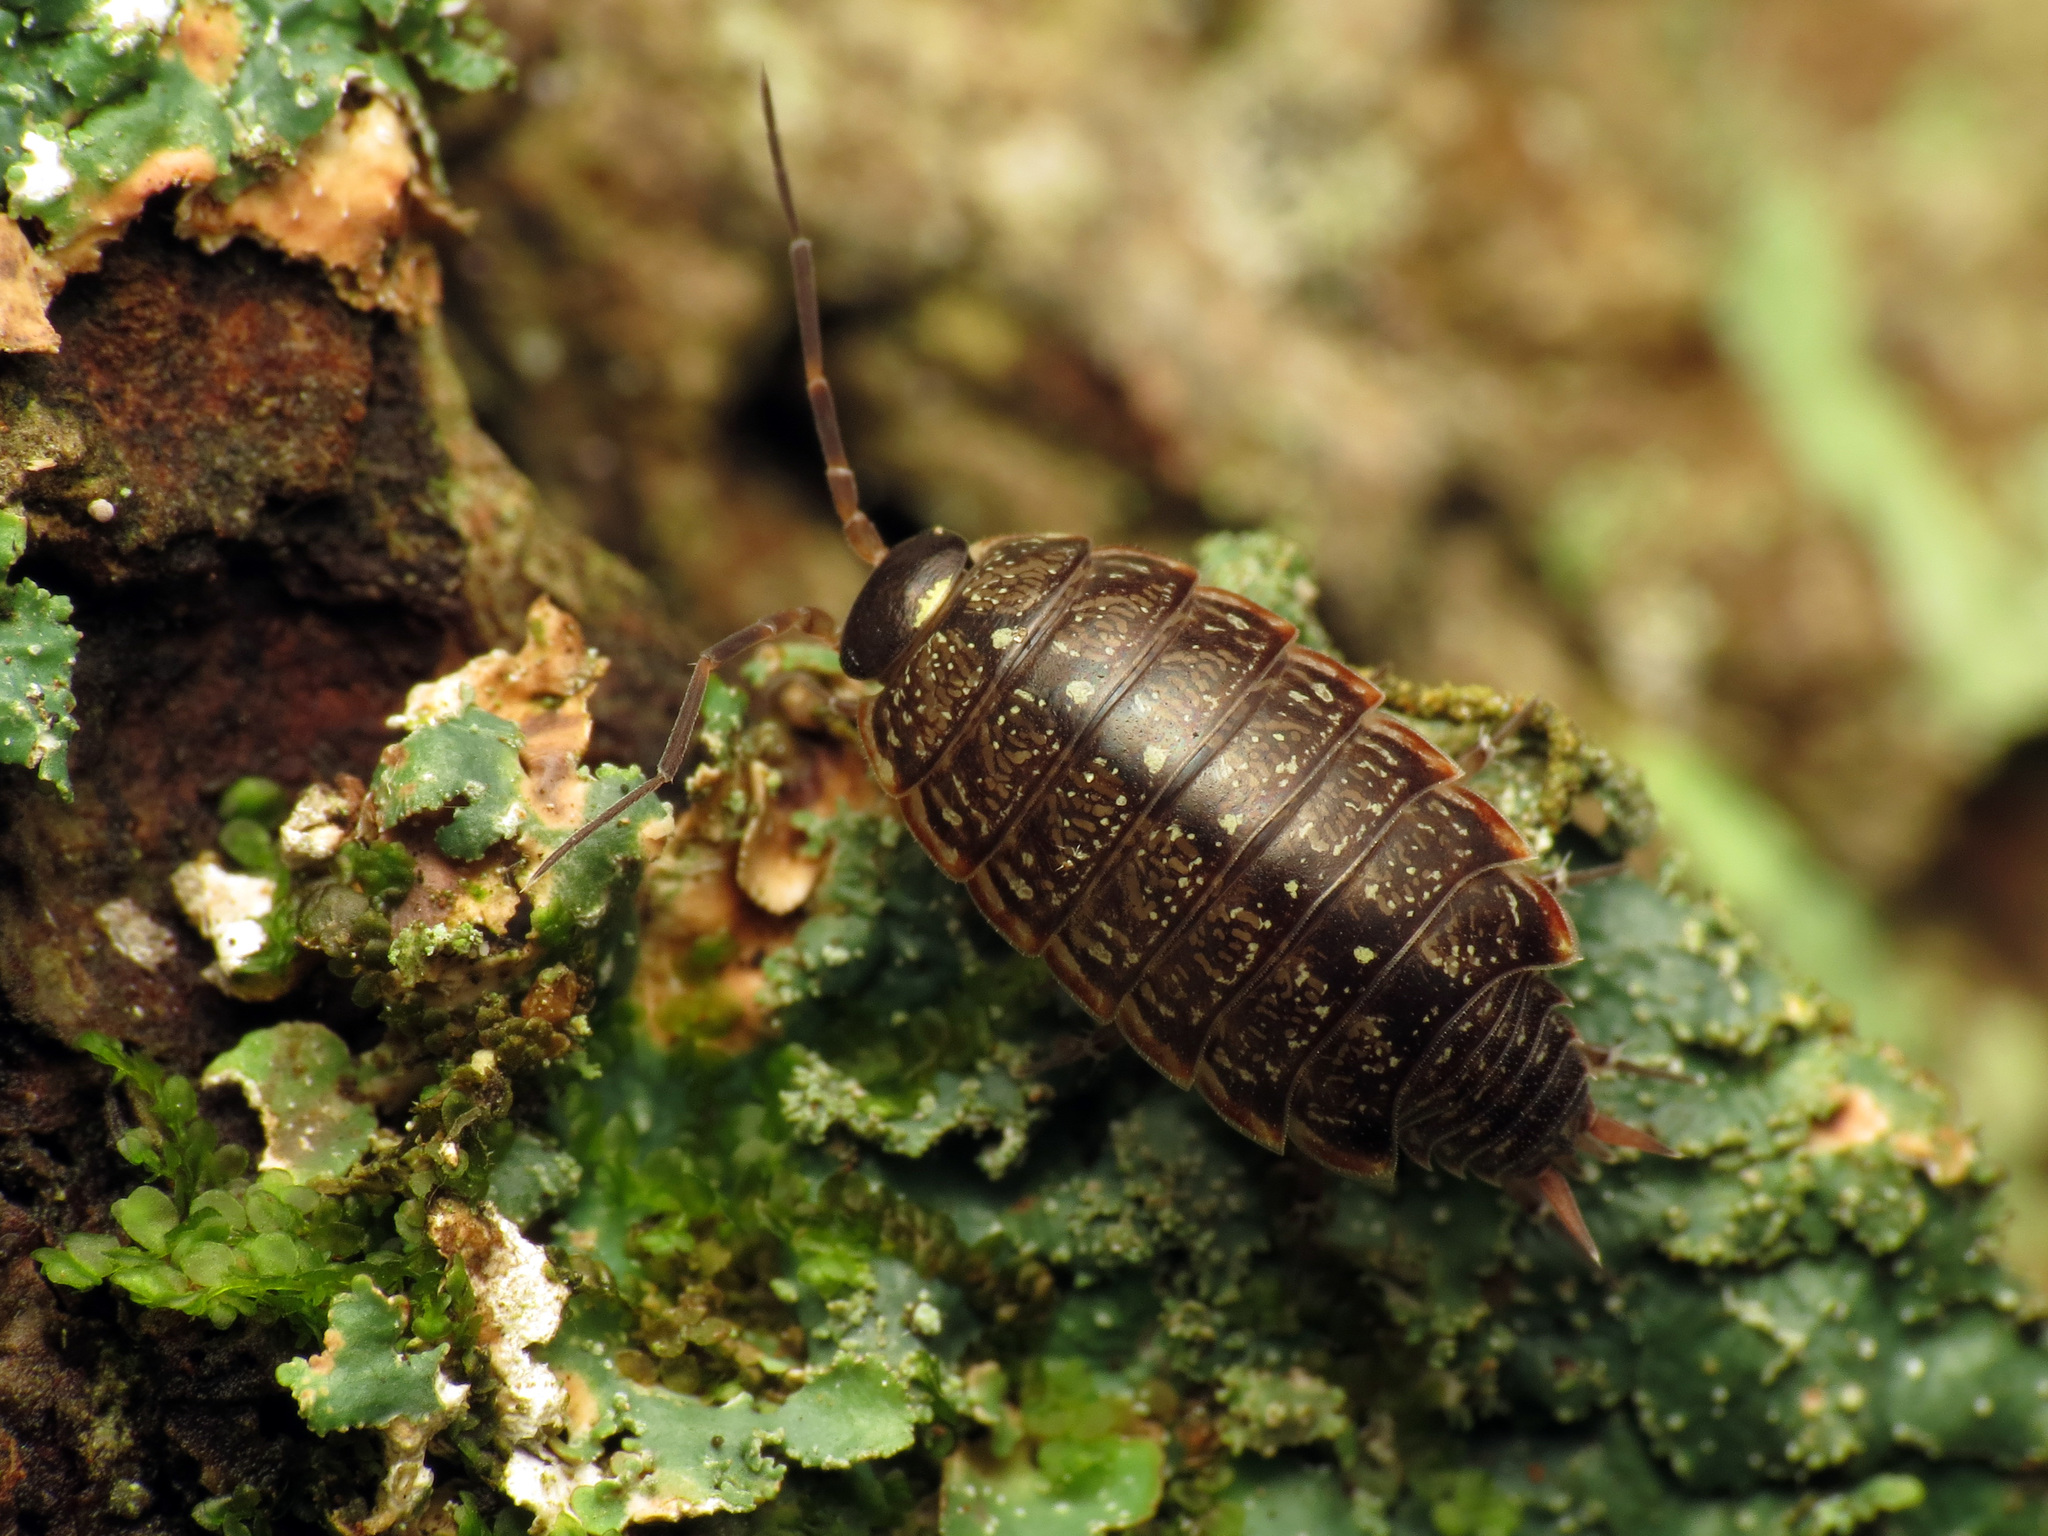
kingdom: Animalia
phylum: Arthropoda
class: Malacostraca
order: Isopoda
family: Philosciidae
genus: Philoscia
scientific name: Philoscia muscorum
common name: Common striped woodlouse
